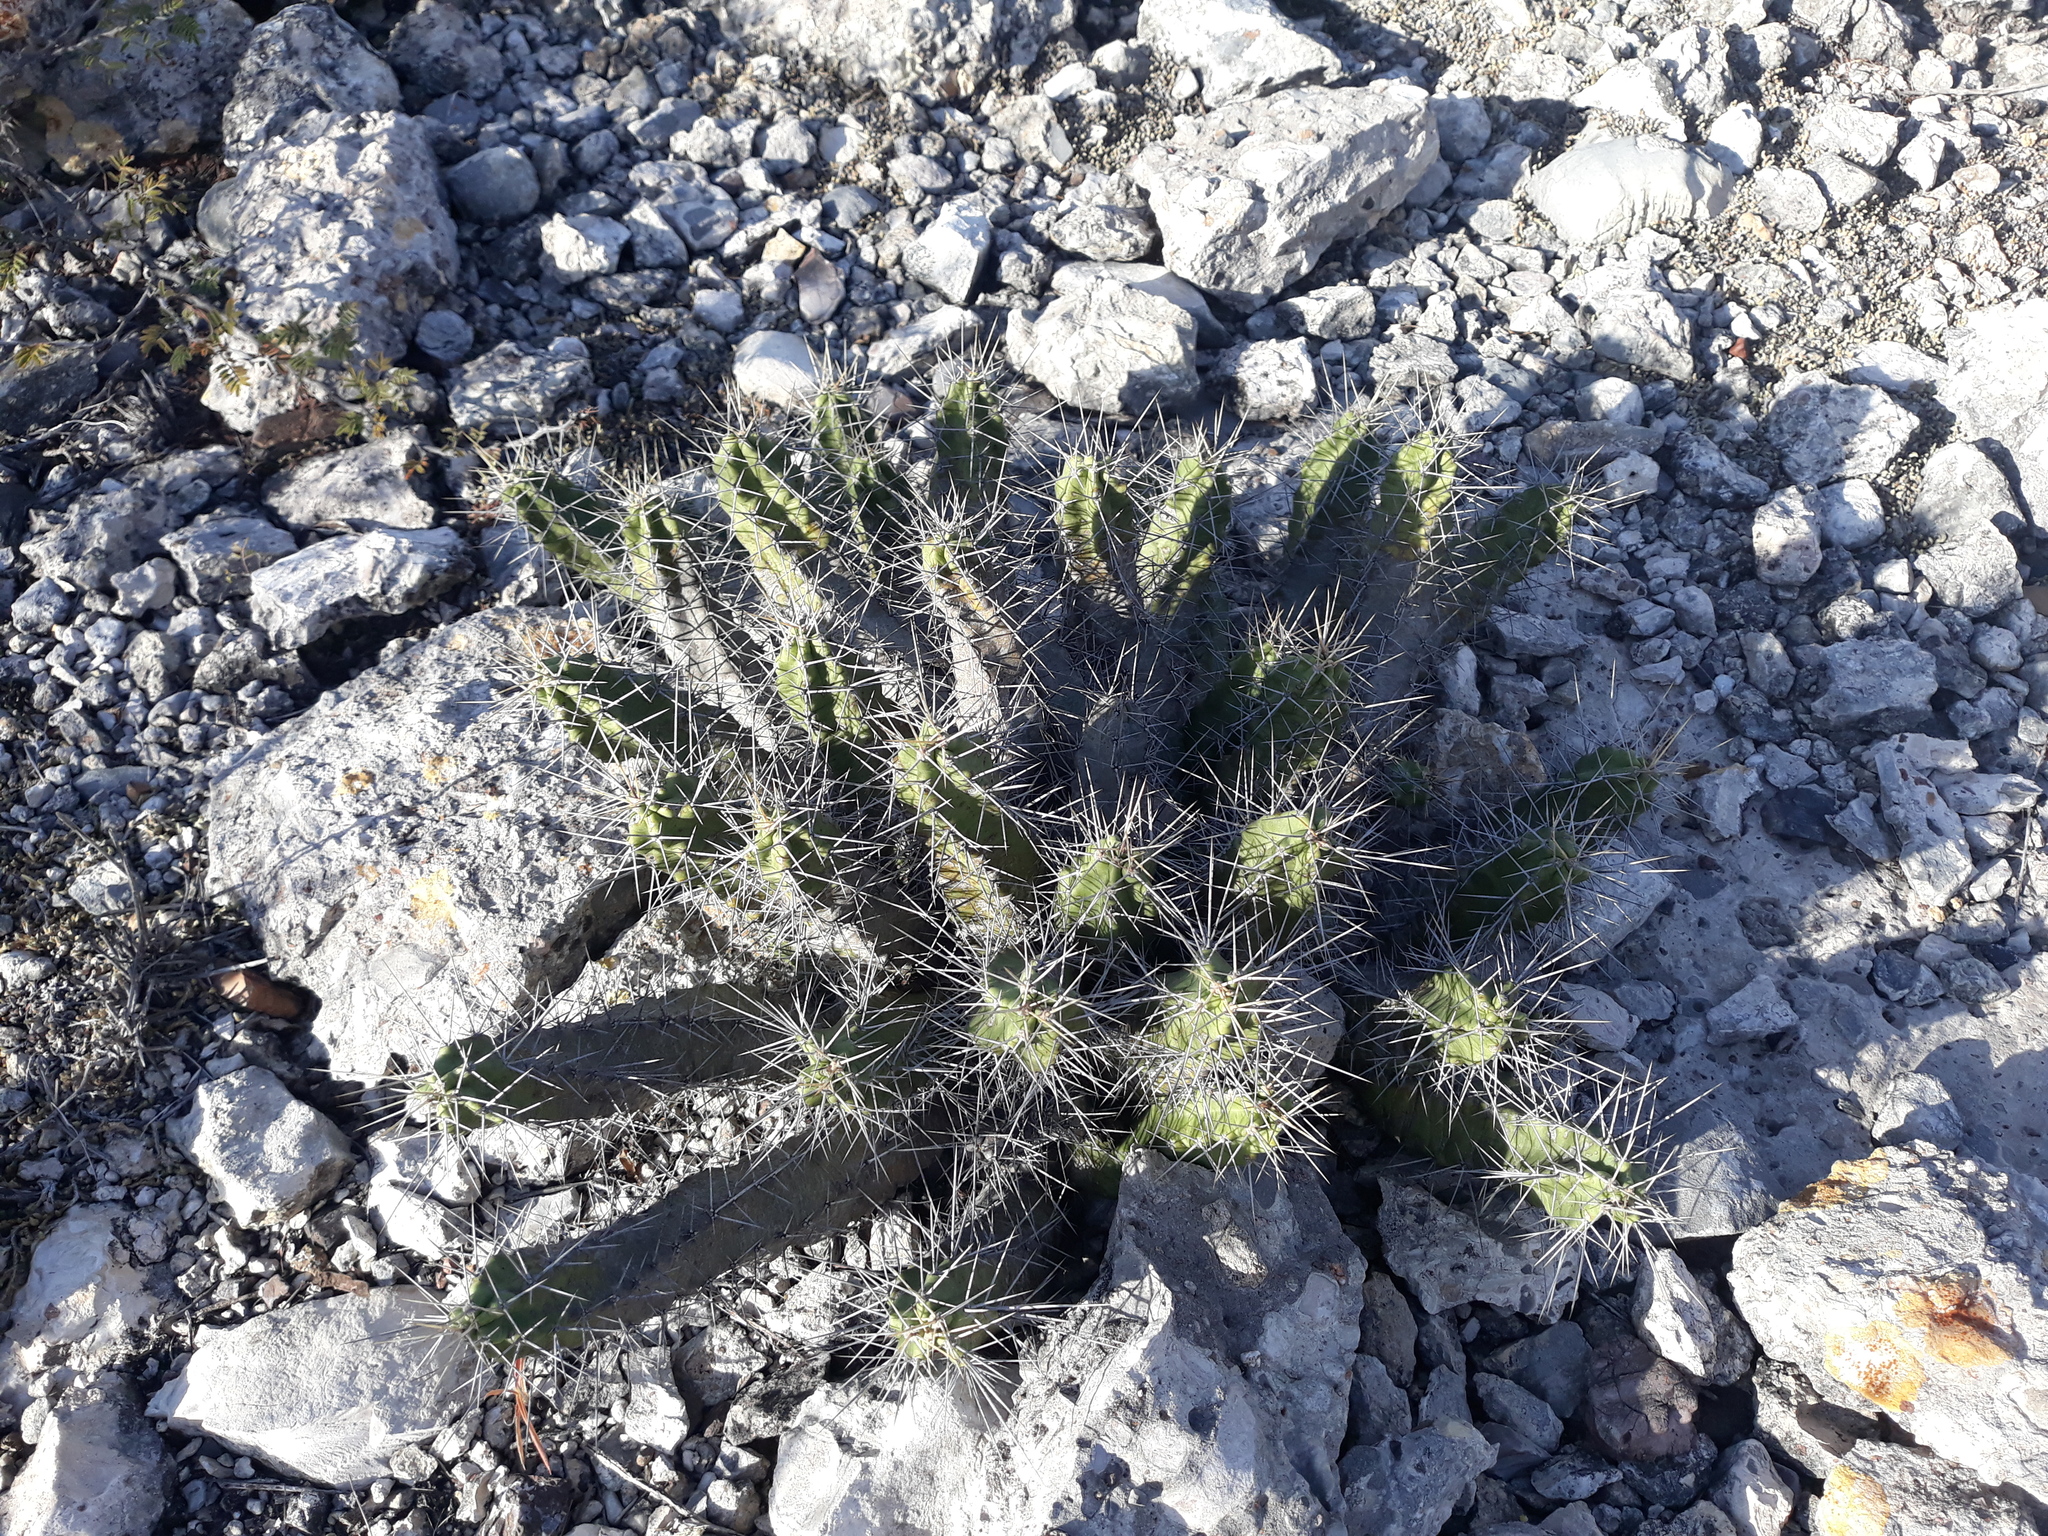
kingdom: Plantae
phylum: Tracheophyta
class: Magnoliopsida
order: Caryophyllales
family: Cactaceae
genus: Echinocereus
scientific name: Echinocereus pentalophus
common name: Ladyfinger cactus
